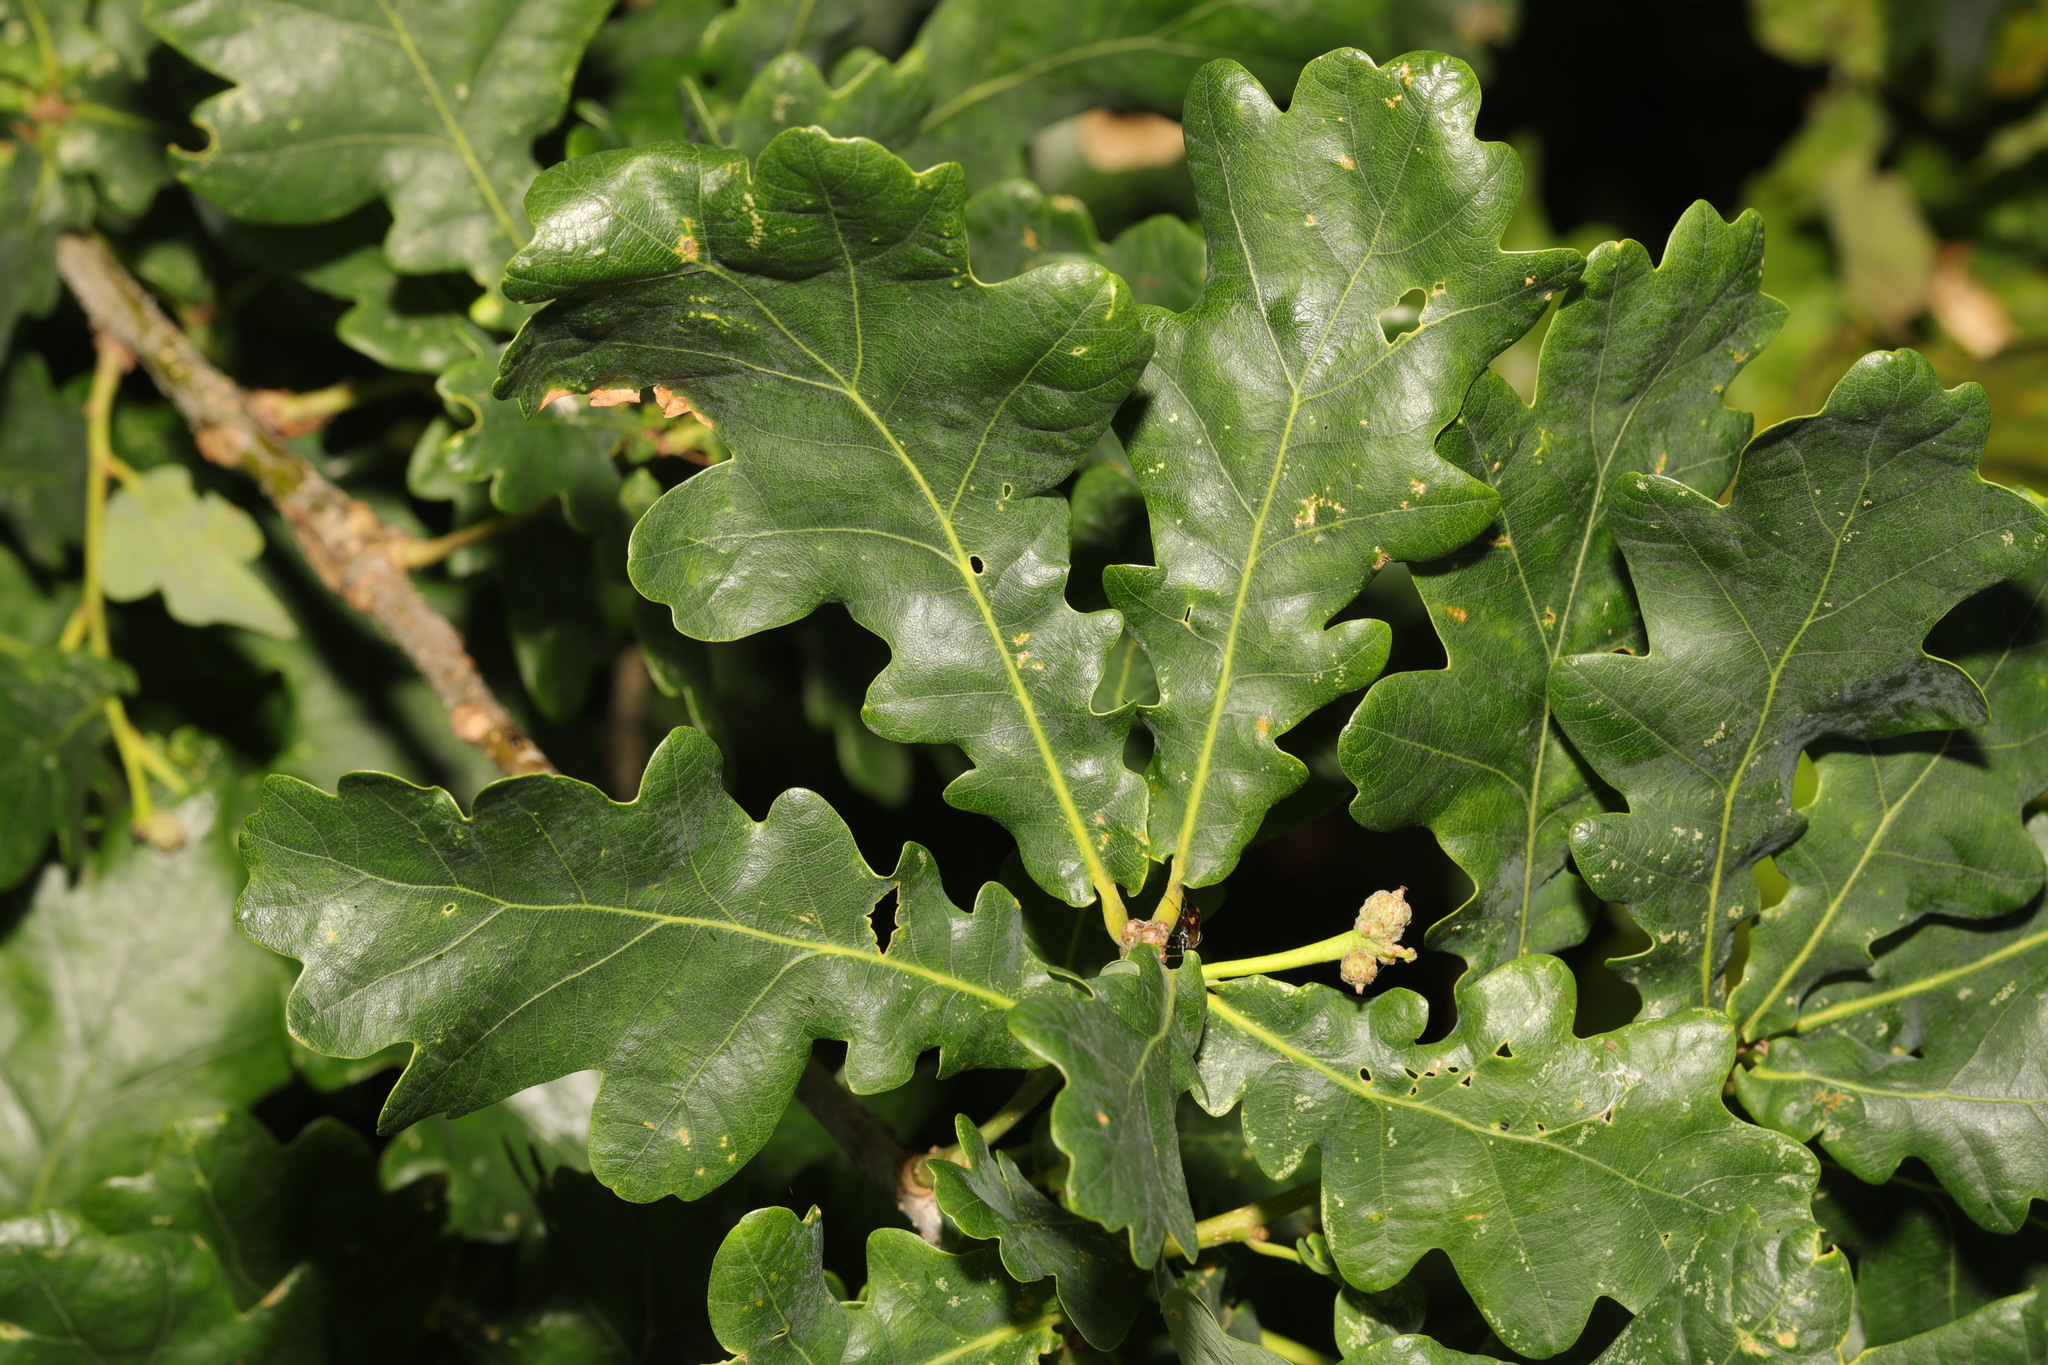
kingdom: Plantae
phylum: Tracheophyta
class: Magnoliopsida
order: Fagales
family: Fagaceae
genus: Quercus
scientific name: Quercus robur
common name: Pedunculate oak
